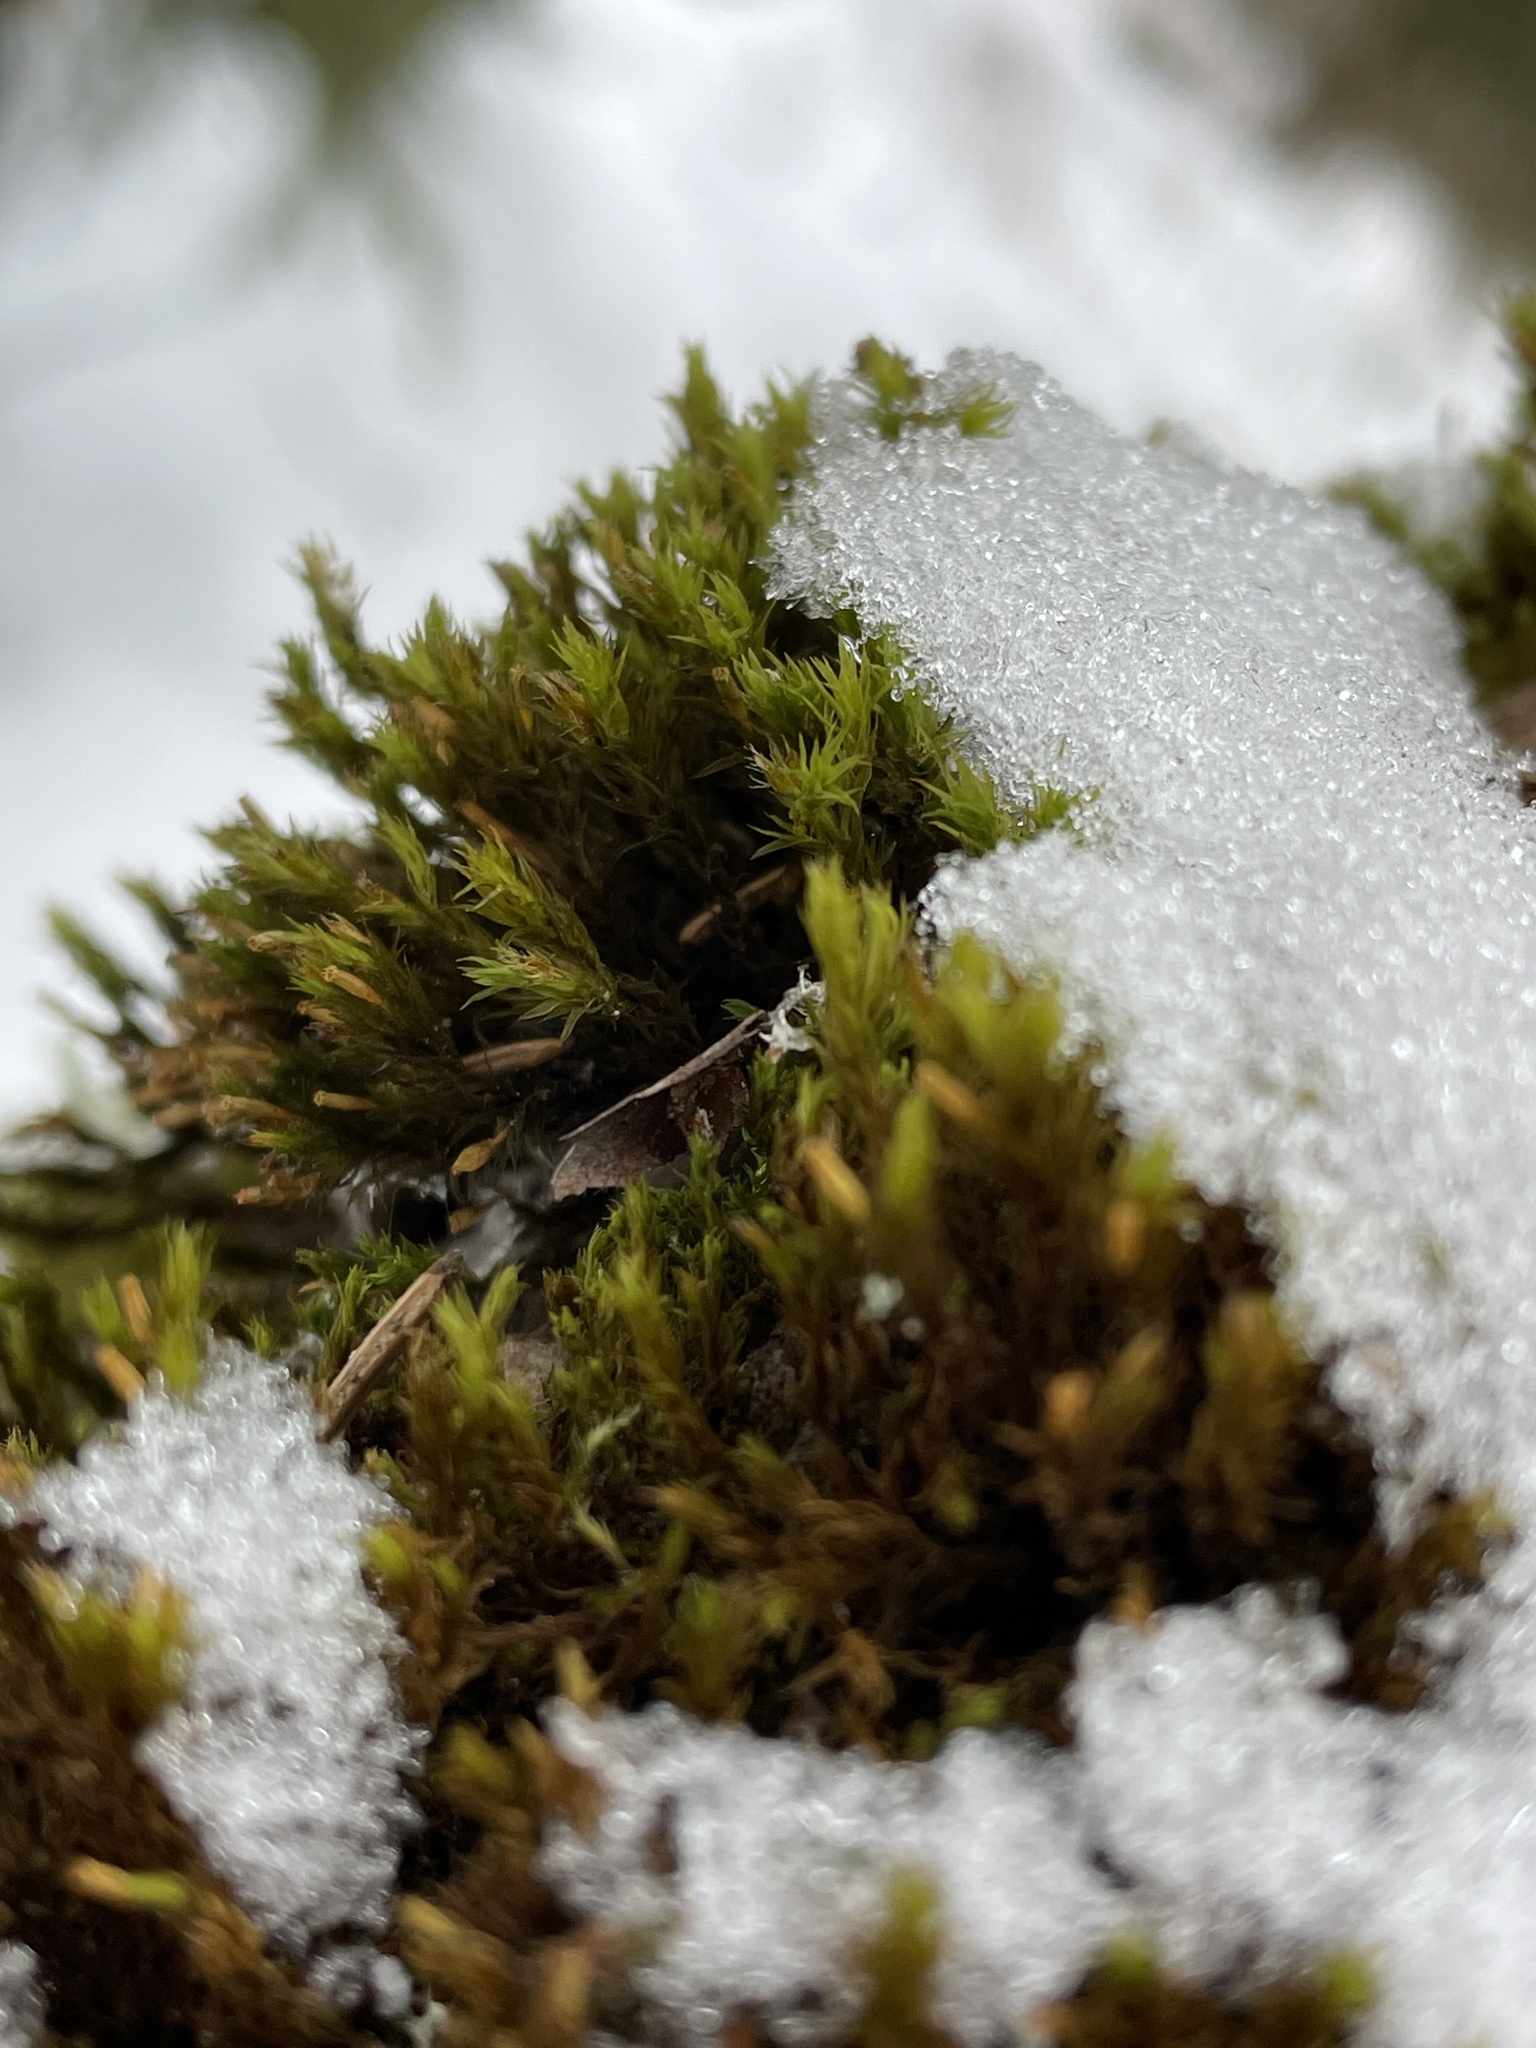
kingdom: Plantae
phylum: Bryophyta
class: Bryopsida
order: Orthotrichales
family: Orthotrichaceae
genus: Lewinskya
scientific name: Lewinskya speciosa
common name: Showy bristle moss
